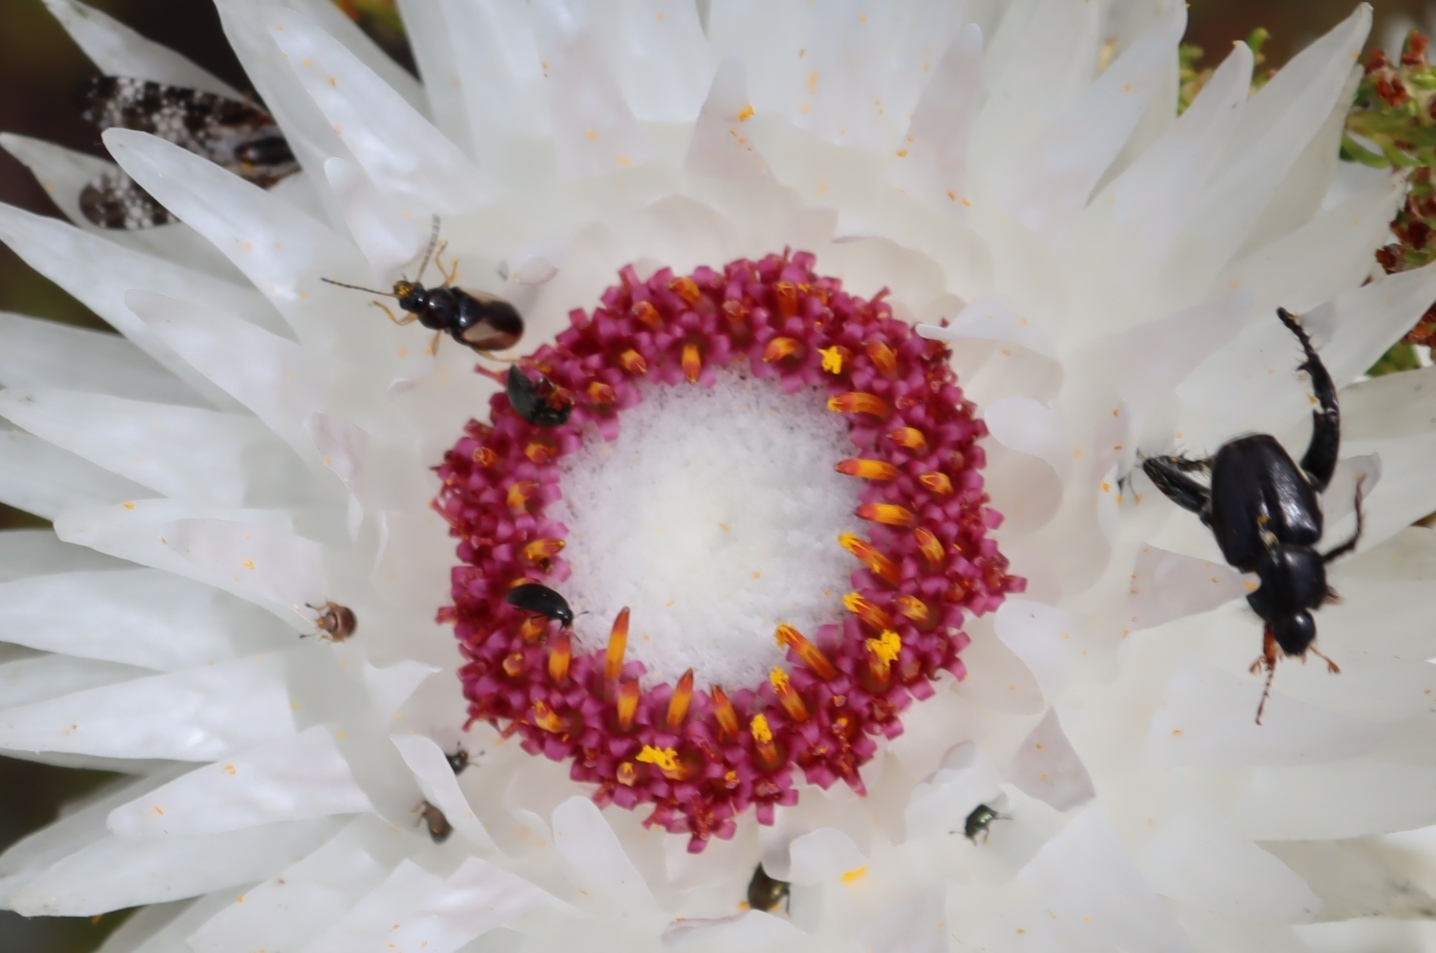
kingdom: Animalia
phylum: Arthropoda
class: Insecta
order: Diptera
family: Tephritidae
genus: Mesoclanis
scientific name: Mesoclanis magnipalpis
